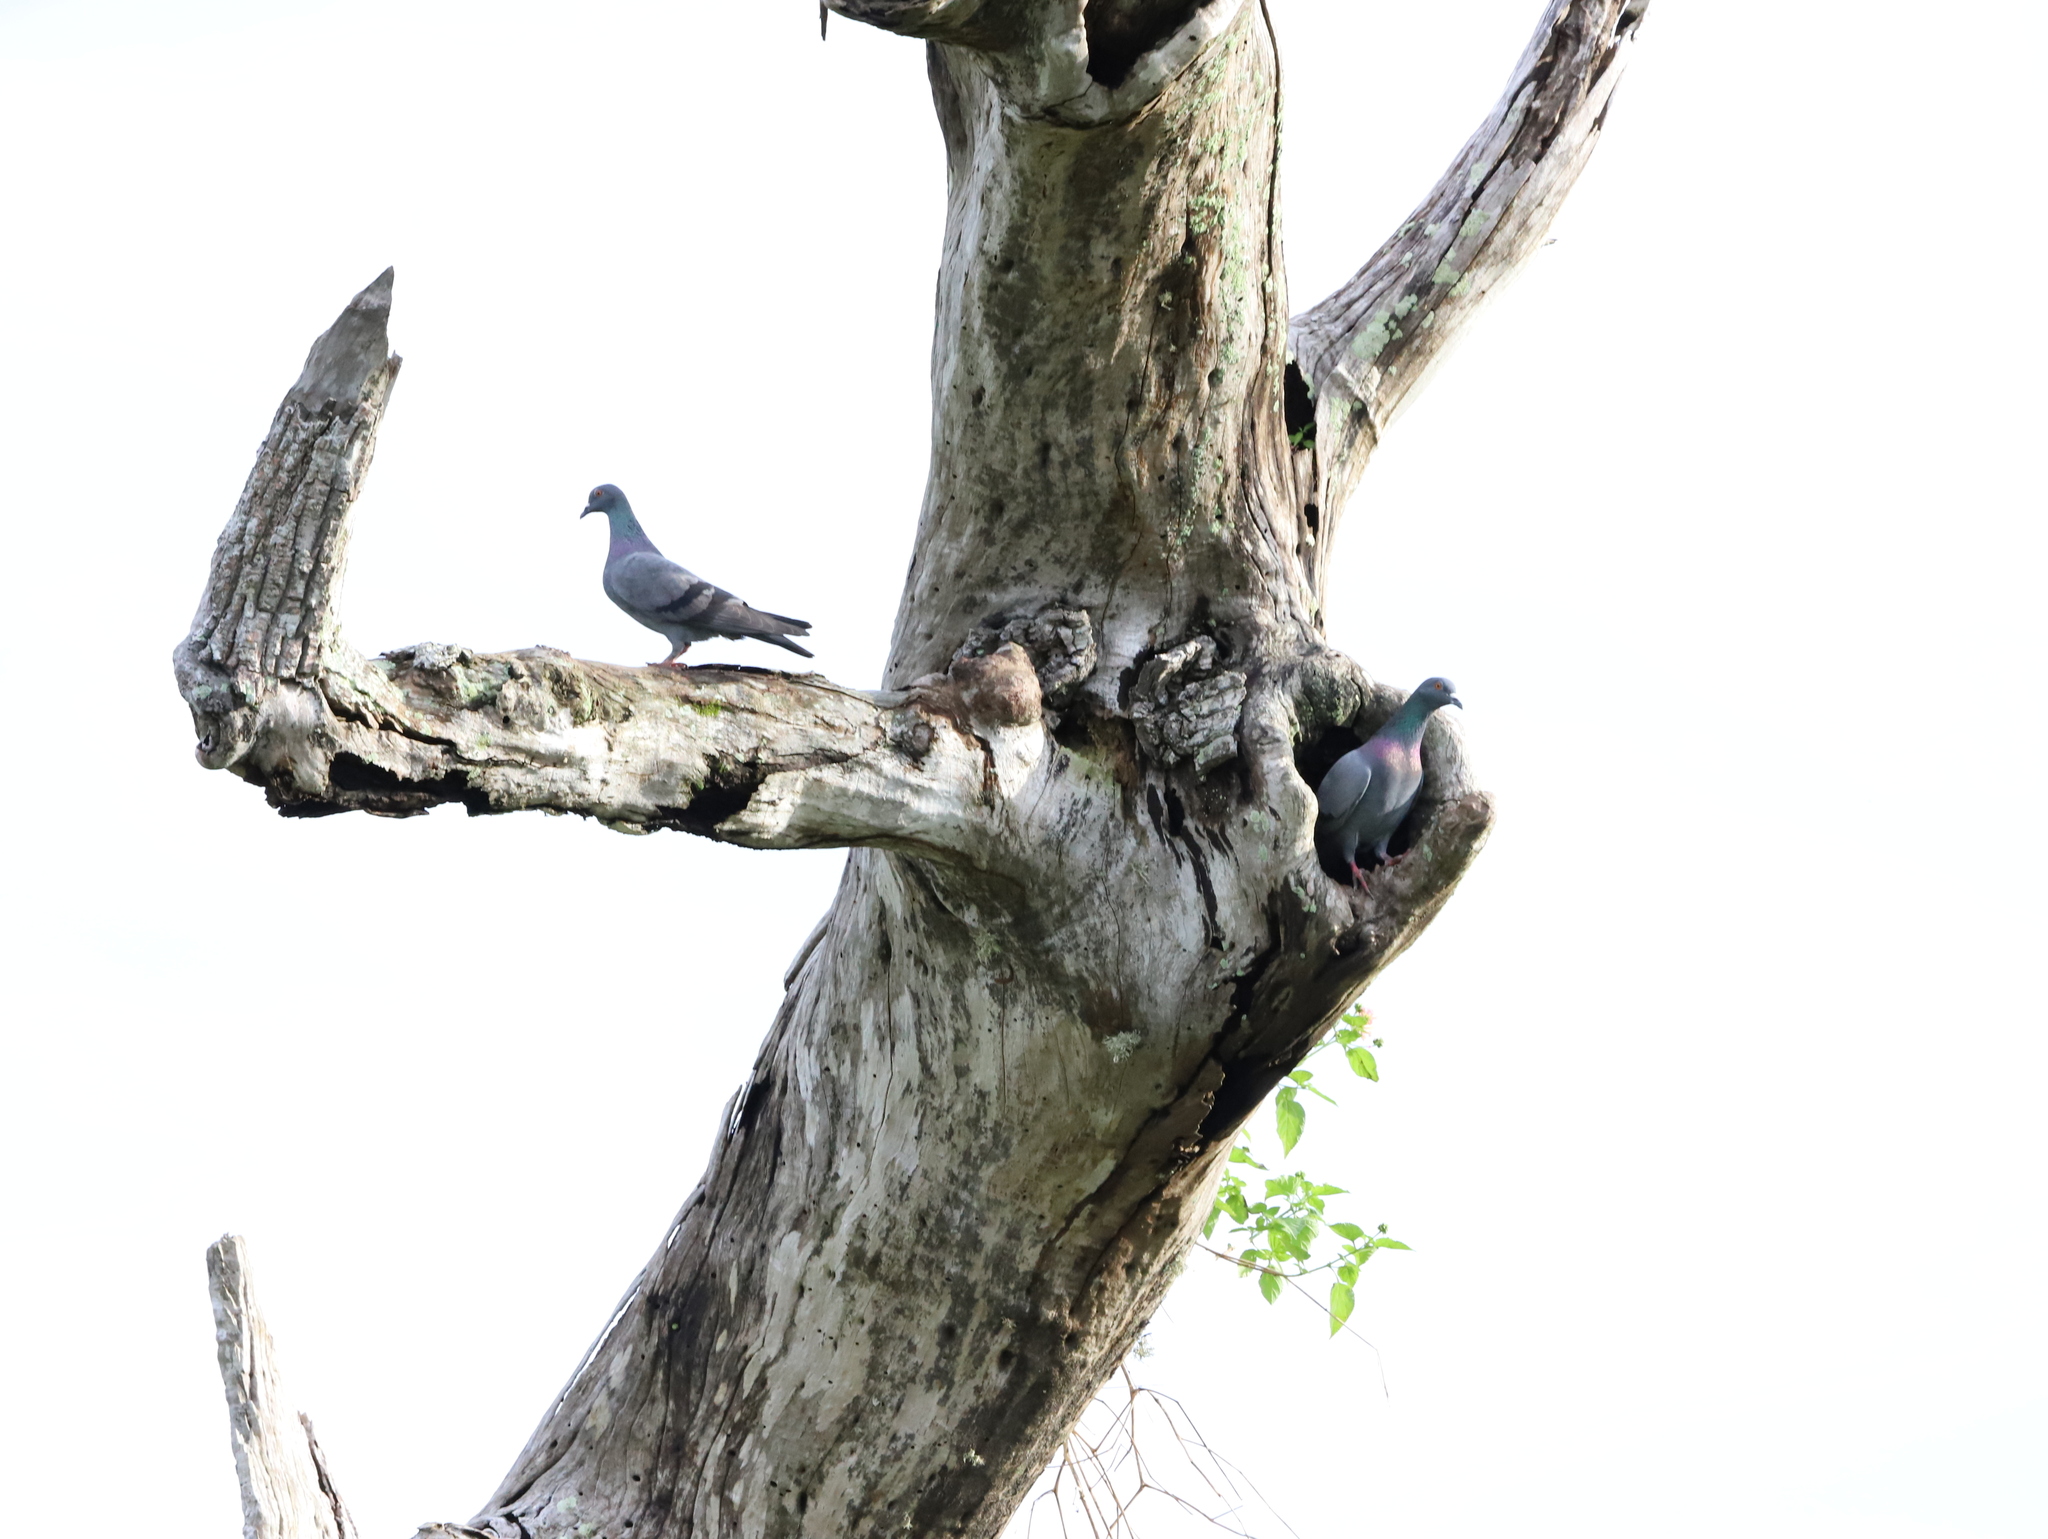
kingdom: Animalia
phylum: Chordata
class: Aves
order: Columbiformes
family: Columbidae
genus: Columba
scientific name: Columba livia
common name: Rock pigeon
